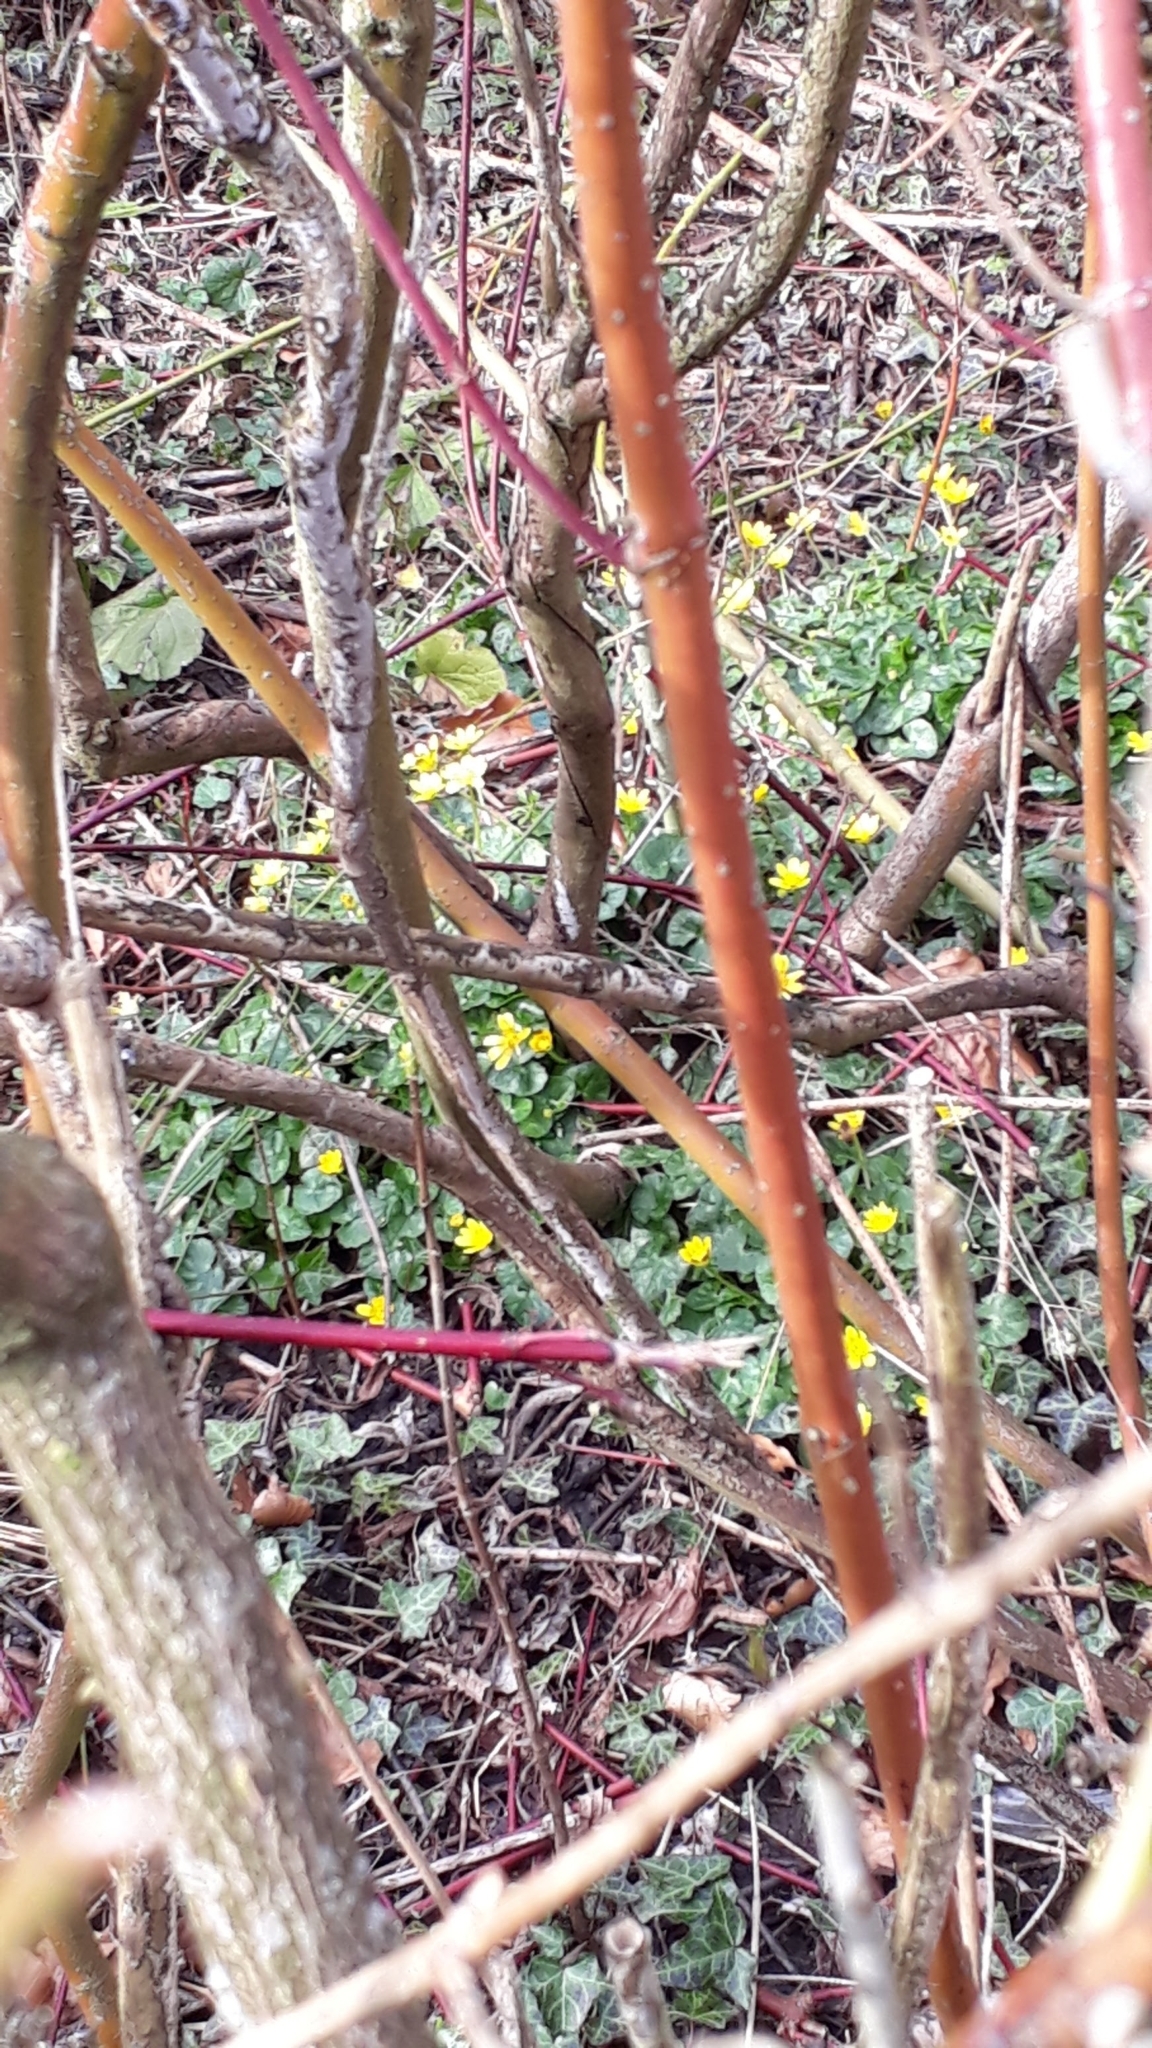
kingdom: Plantae
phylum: Tracheophyta
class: Magnoliopsida
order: Ranunculales
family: Ranunculaceae
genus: Ficaria
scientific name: Ficaria verna
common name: Lesser celandine
